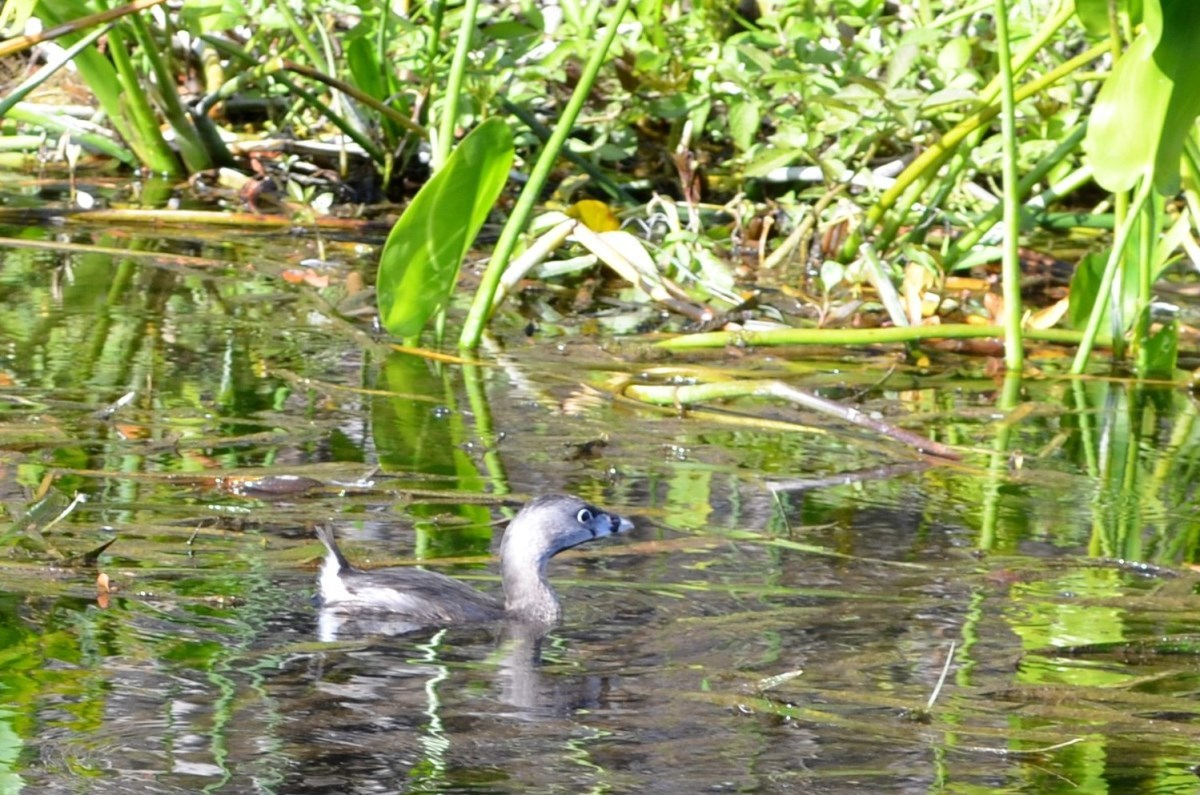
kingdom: Animalia
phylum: Chordata
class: Aves
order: Podicipediformes
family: Podicipedidae
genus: Podilymbus
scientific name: Podilymbus podiceps
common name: Pied-billed grebe
